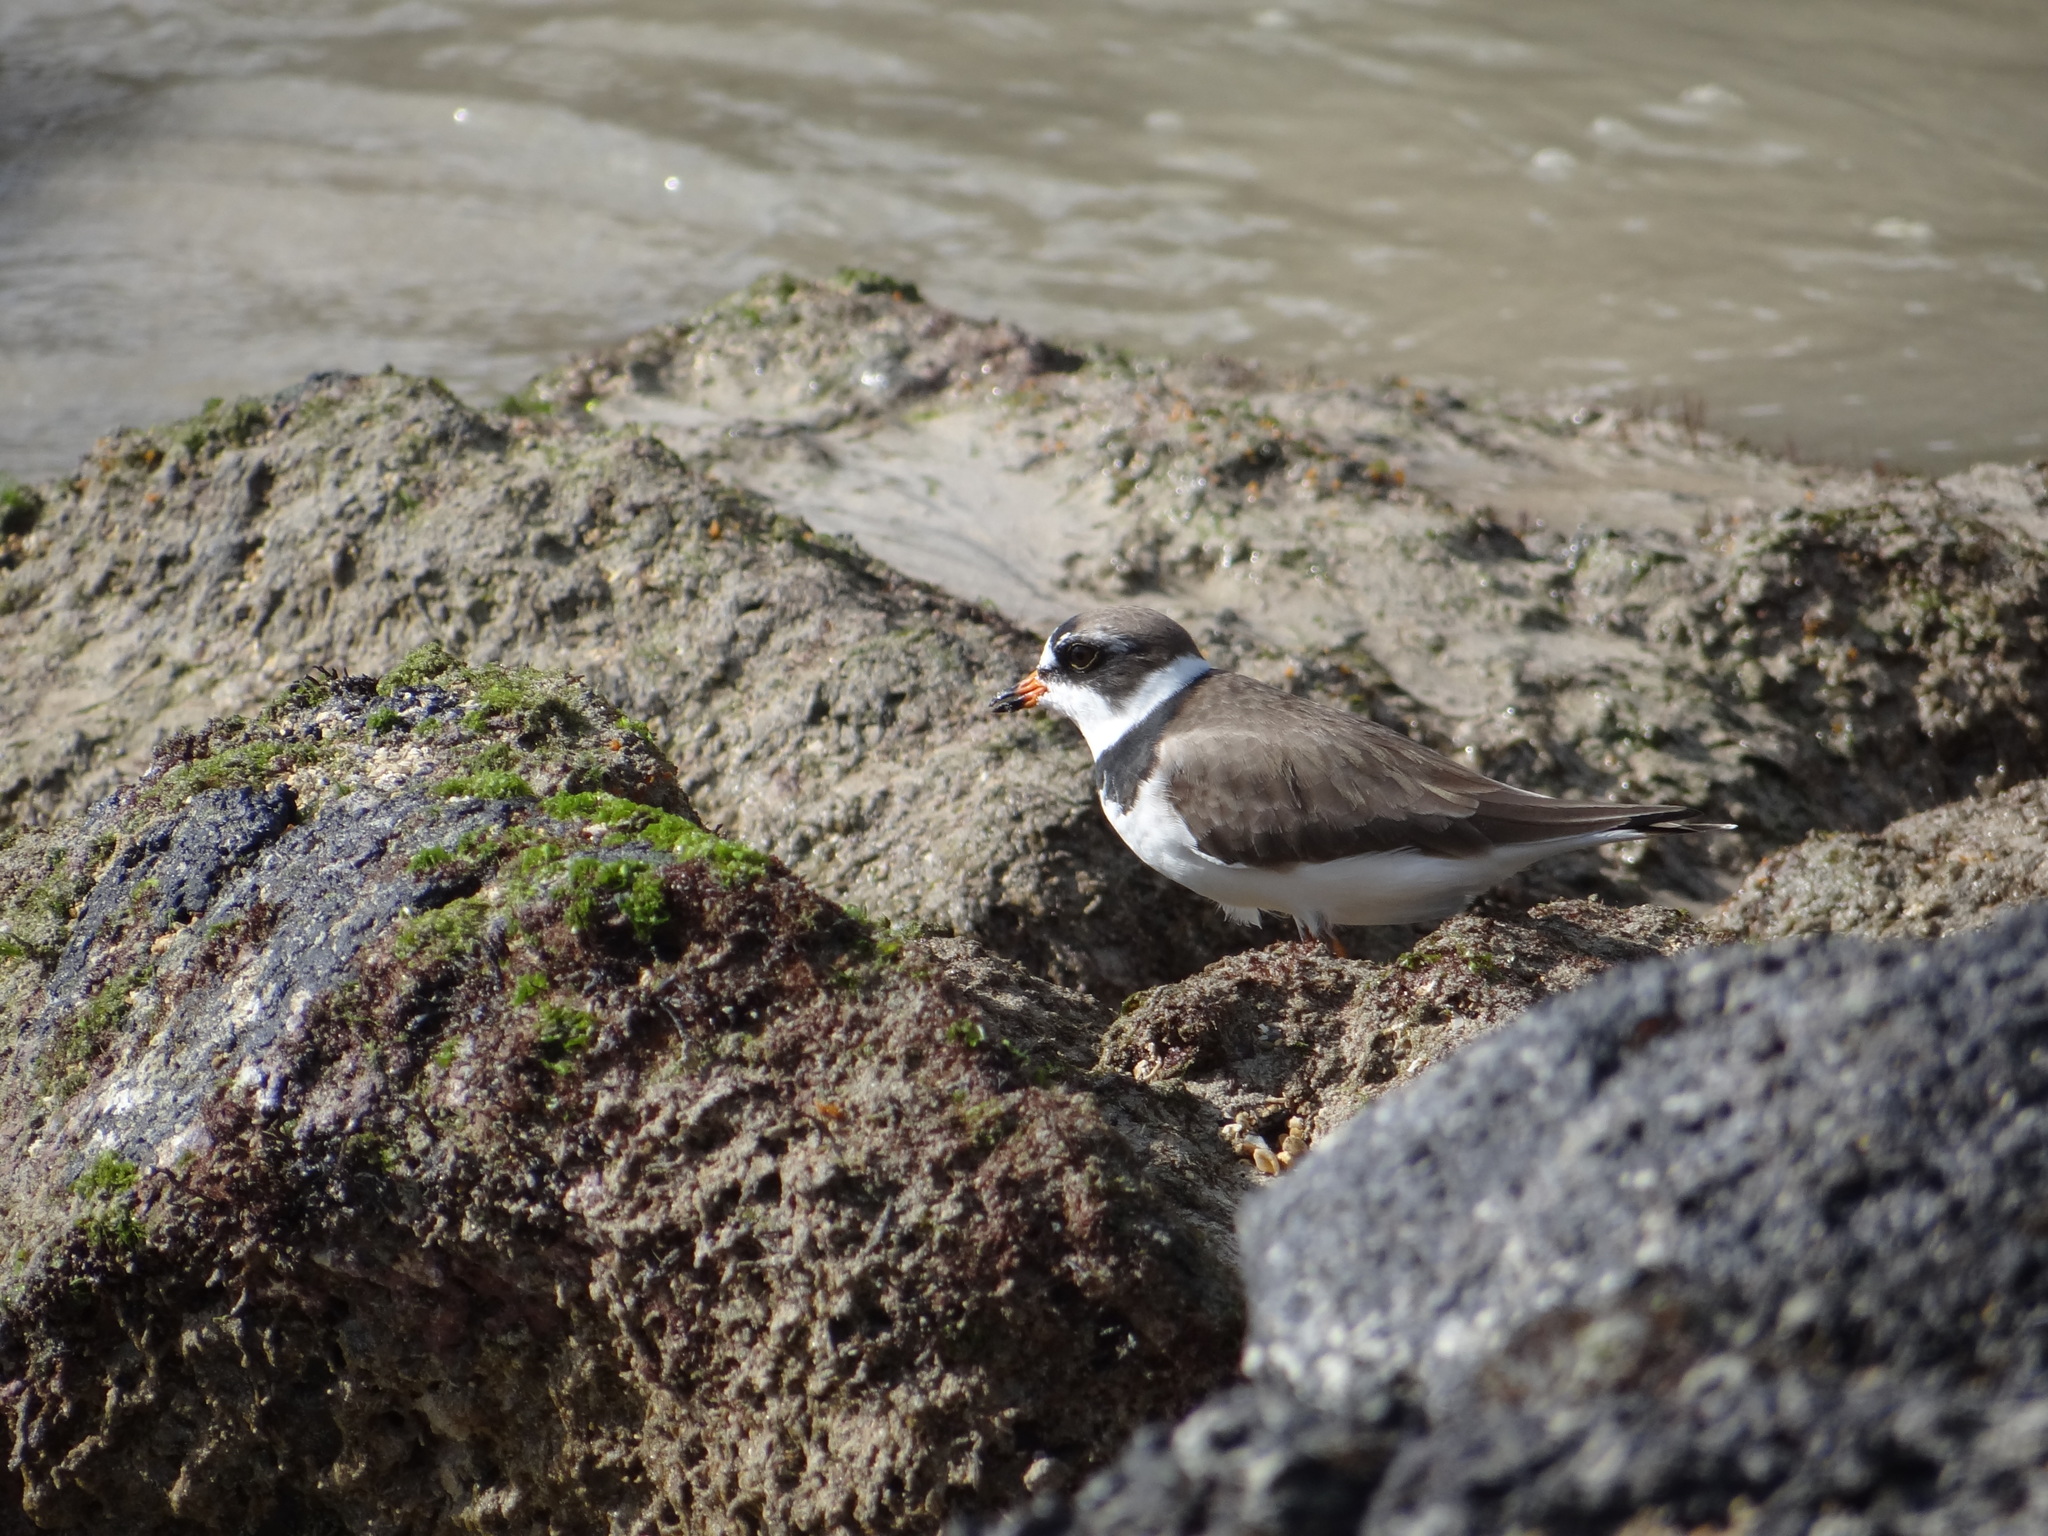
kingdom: Animalia
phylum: Chordata
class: Aves
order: Charadriiformes
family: Charadriidae
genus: Charadrius
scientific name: Charadrius semipalmatus
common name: Semipalmated plover
